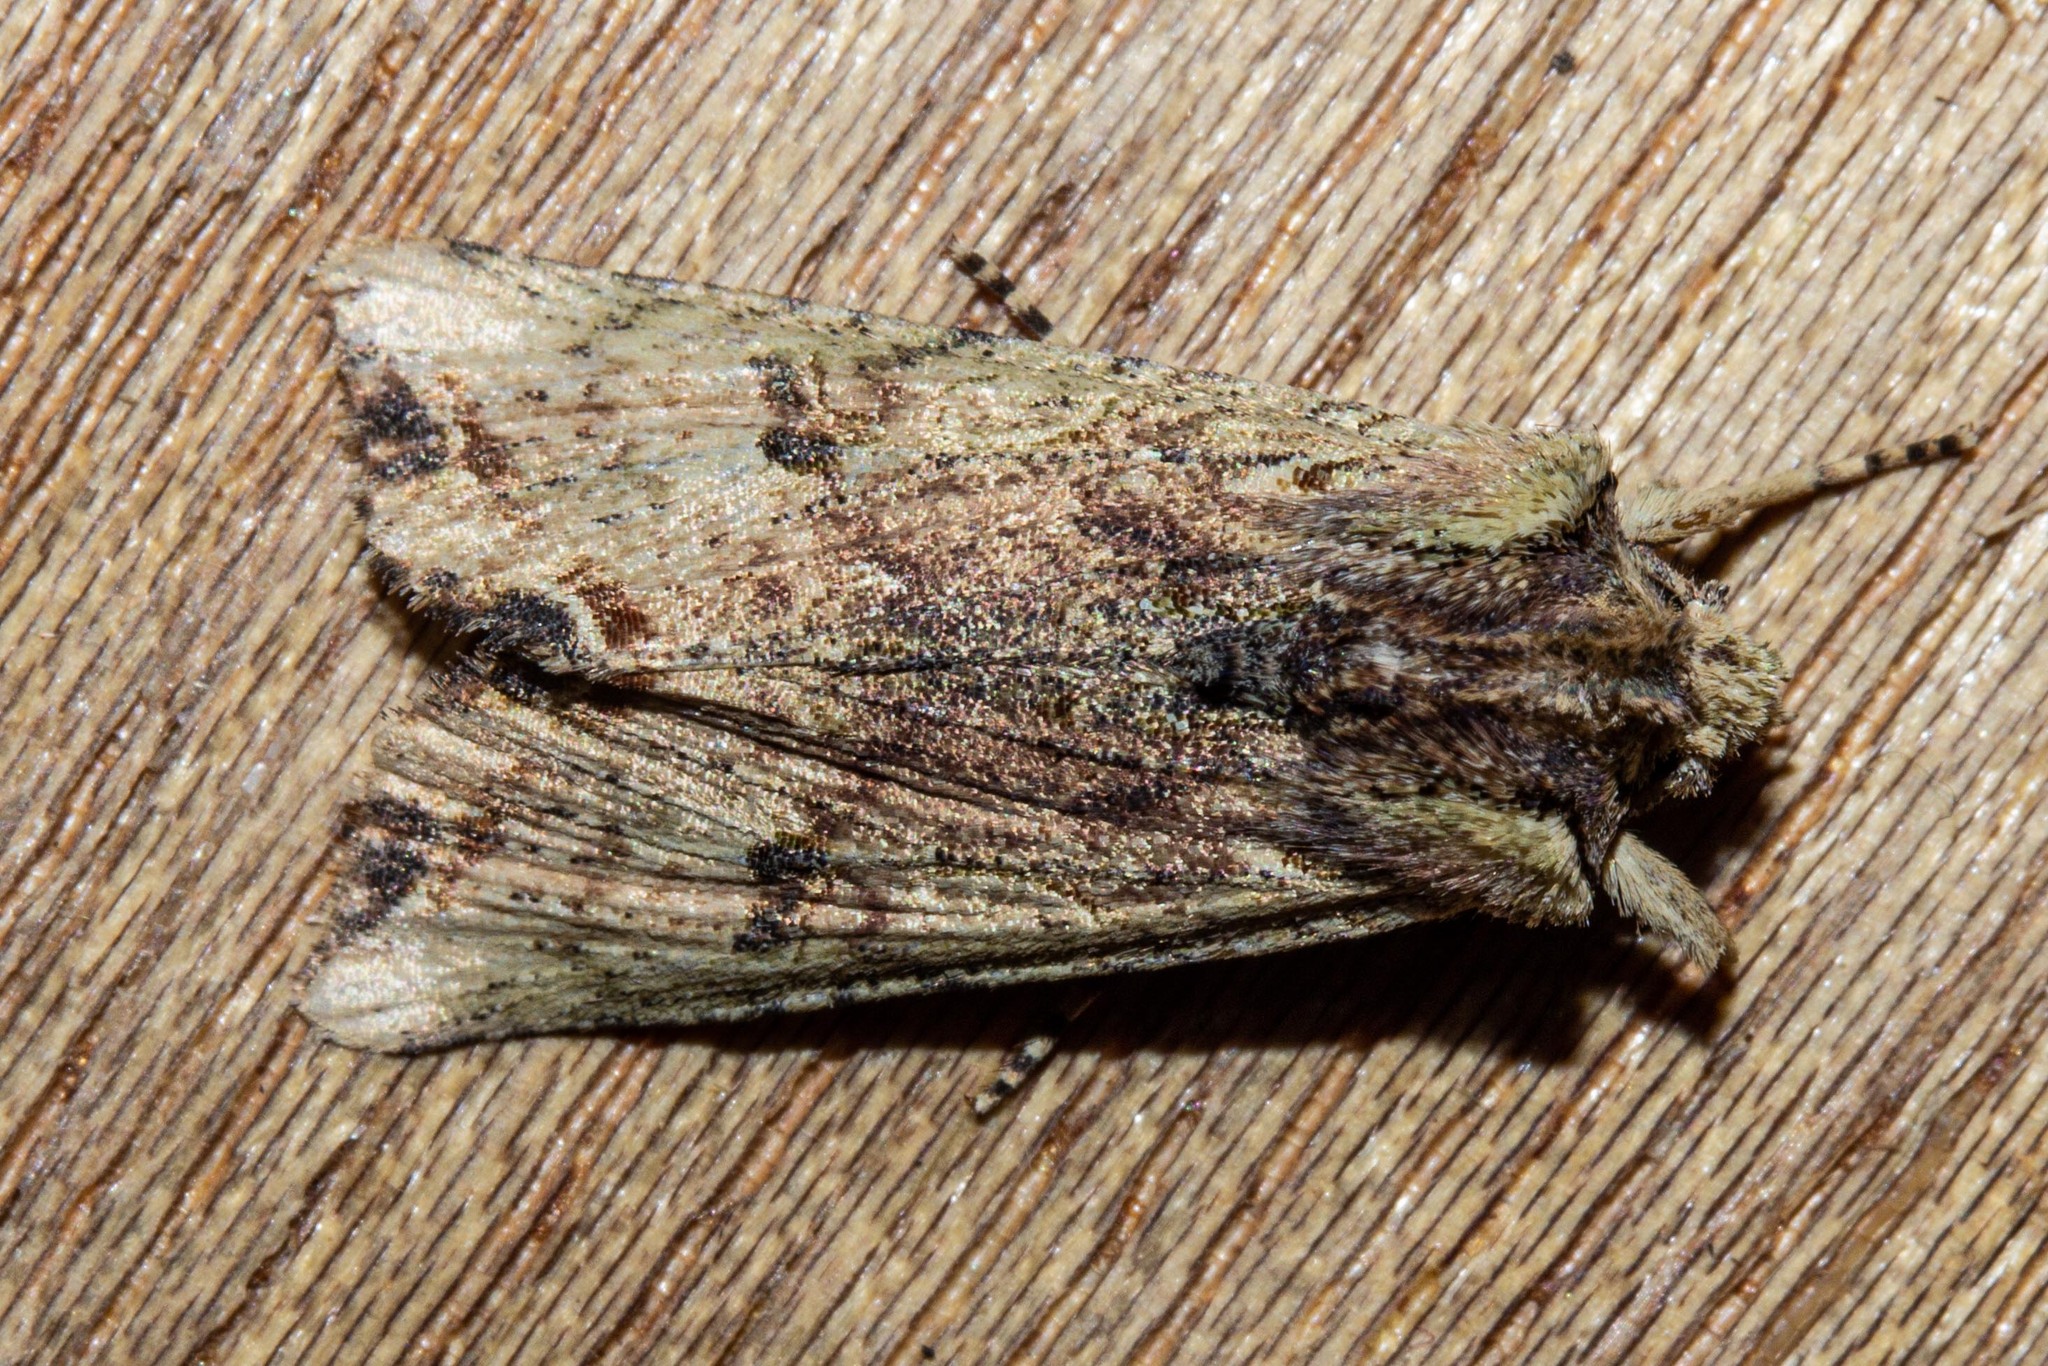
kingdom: Animalia
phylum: Arthropoda
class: Insecta
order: Lepidoptera
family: Noctuidae
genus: Meterana
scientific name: Meterana coeleno
